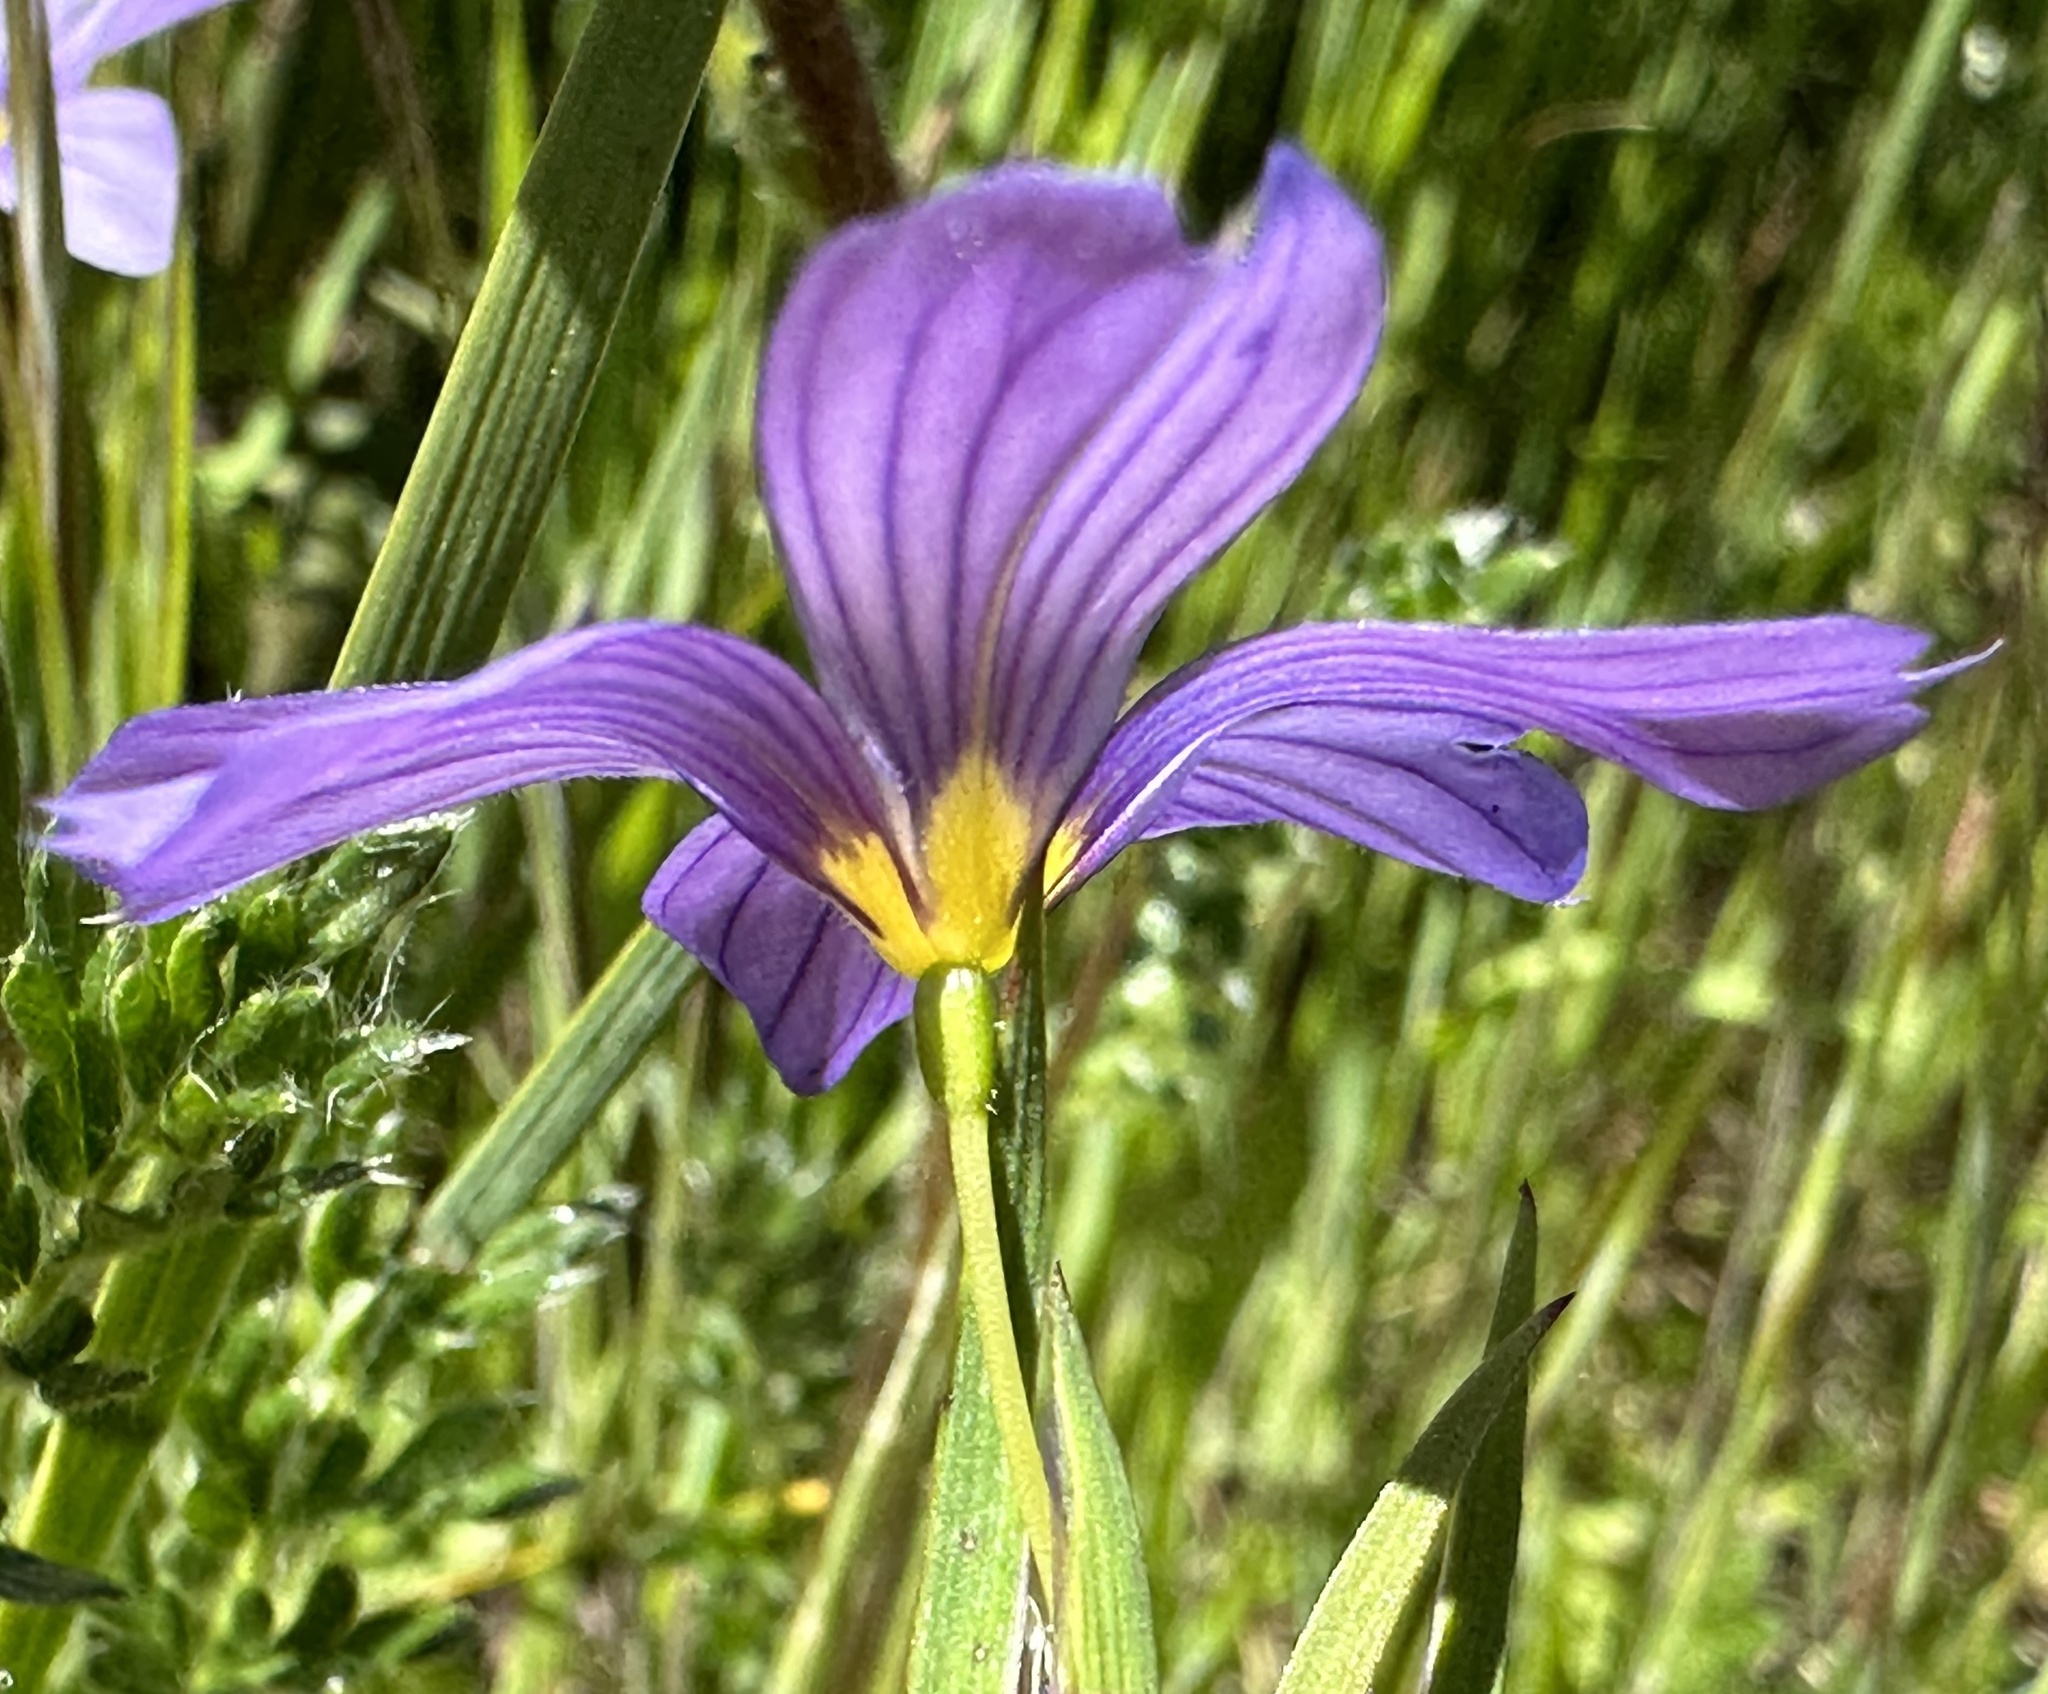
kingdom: Plantae
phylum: Tracheophyta
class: Liliopsida
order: Asparagales
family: Iridaceae
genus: Sisyrinchium
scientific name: Sisyrinchium bellum
